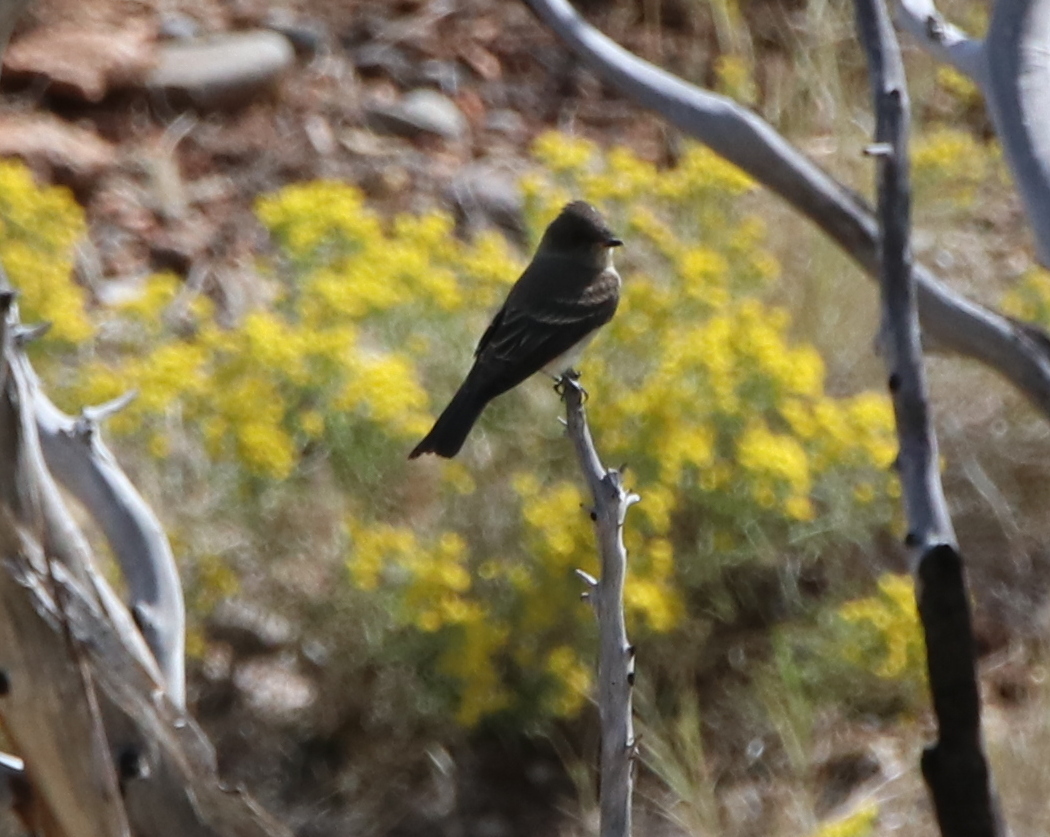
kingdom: Animalia
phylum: Chordata
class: Aves
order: Passeriformes
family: Tyrannidae
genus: Contopus
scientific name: Contopus sordidulus
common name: Western wood-pewee
